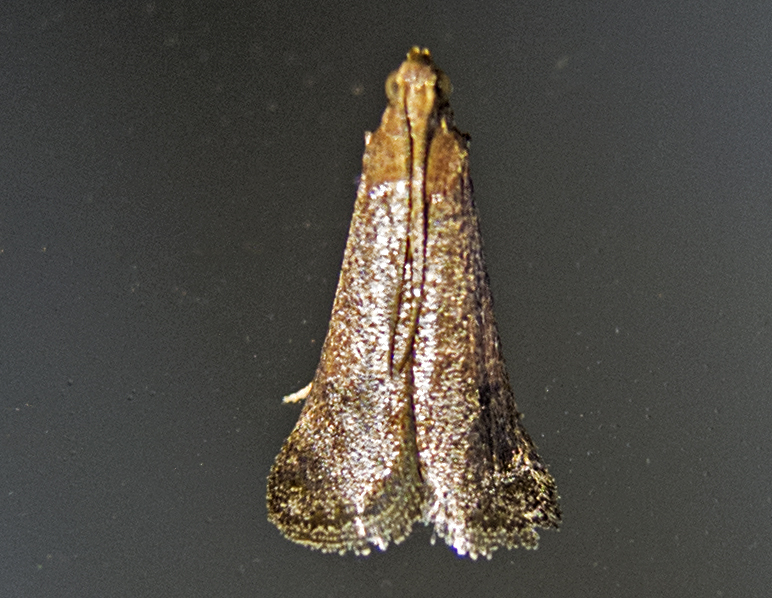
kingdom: Animalia
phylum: Arthropoda
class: Insecta
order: Lepidoptera
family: Pyralidae
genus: Euzophera
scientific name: Euzophera fuliginosella
